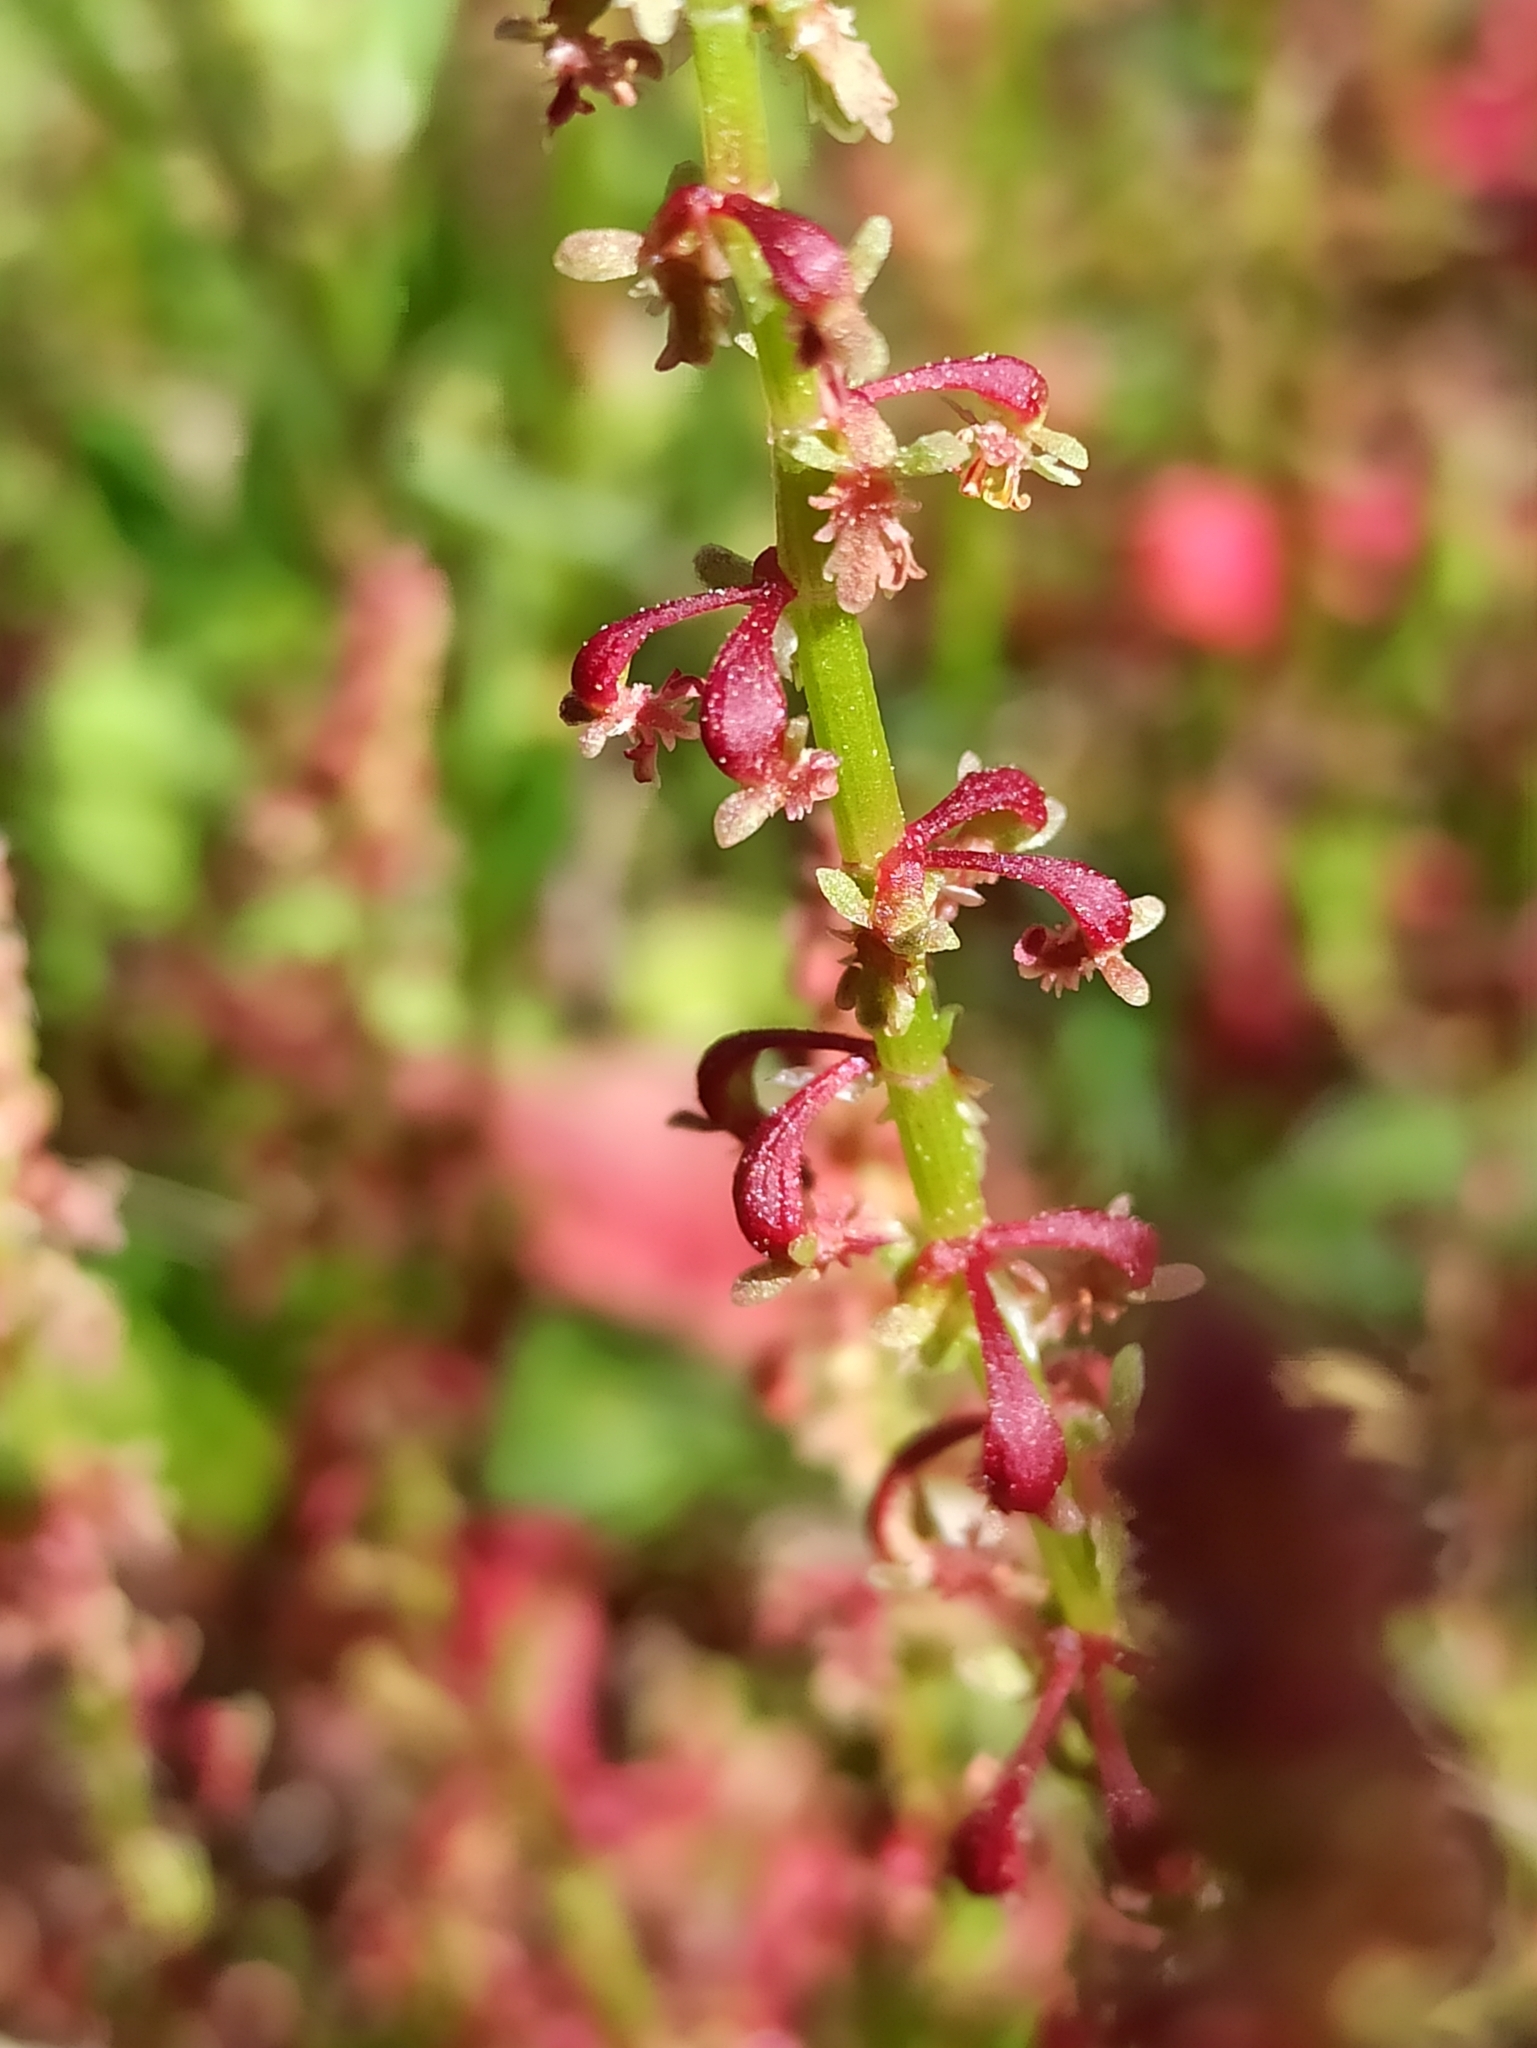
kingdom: Plantae
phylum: Tracheophyta
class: Magnoliopsida
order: Caryophyllales
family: Polygonaceae
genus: Rumex
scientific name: Rumex bucephalophorus
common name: Red dock
